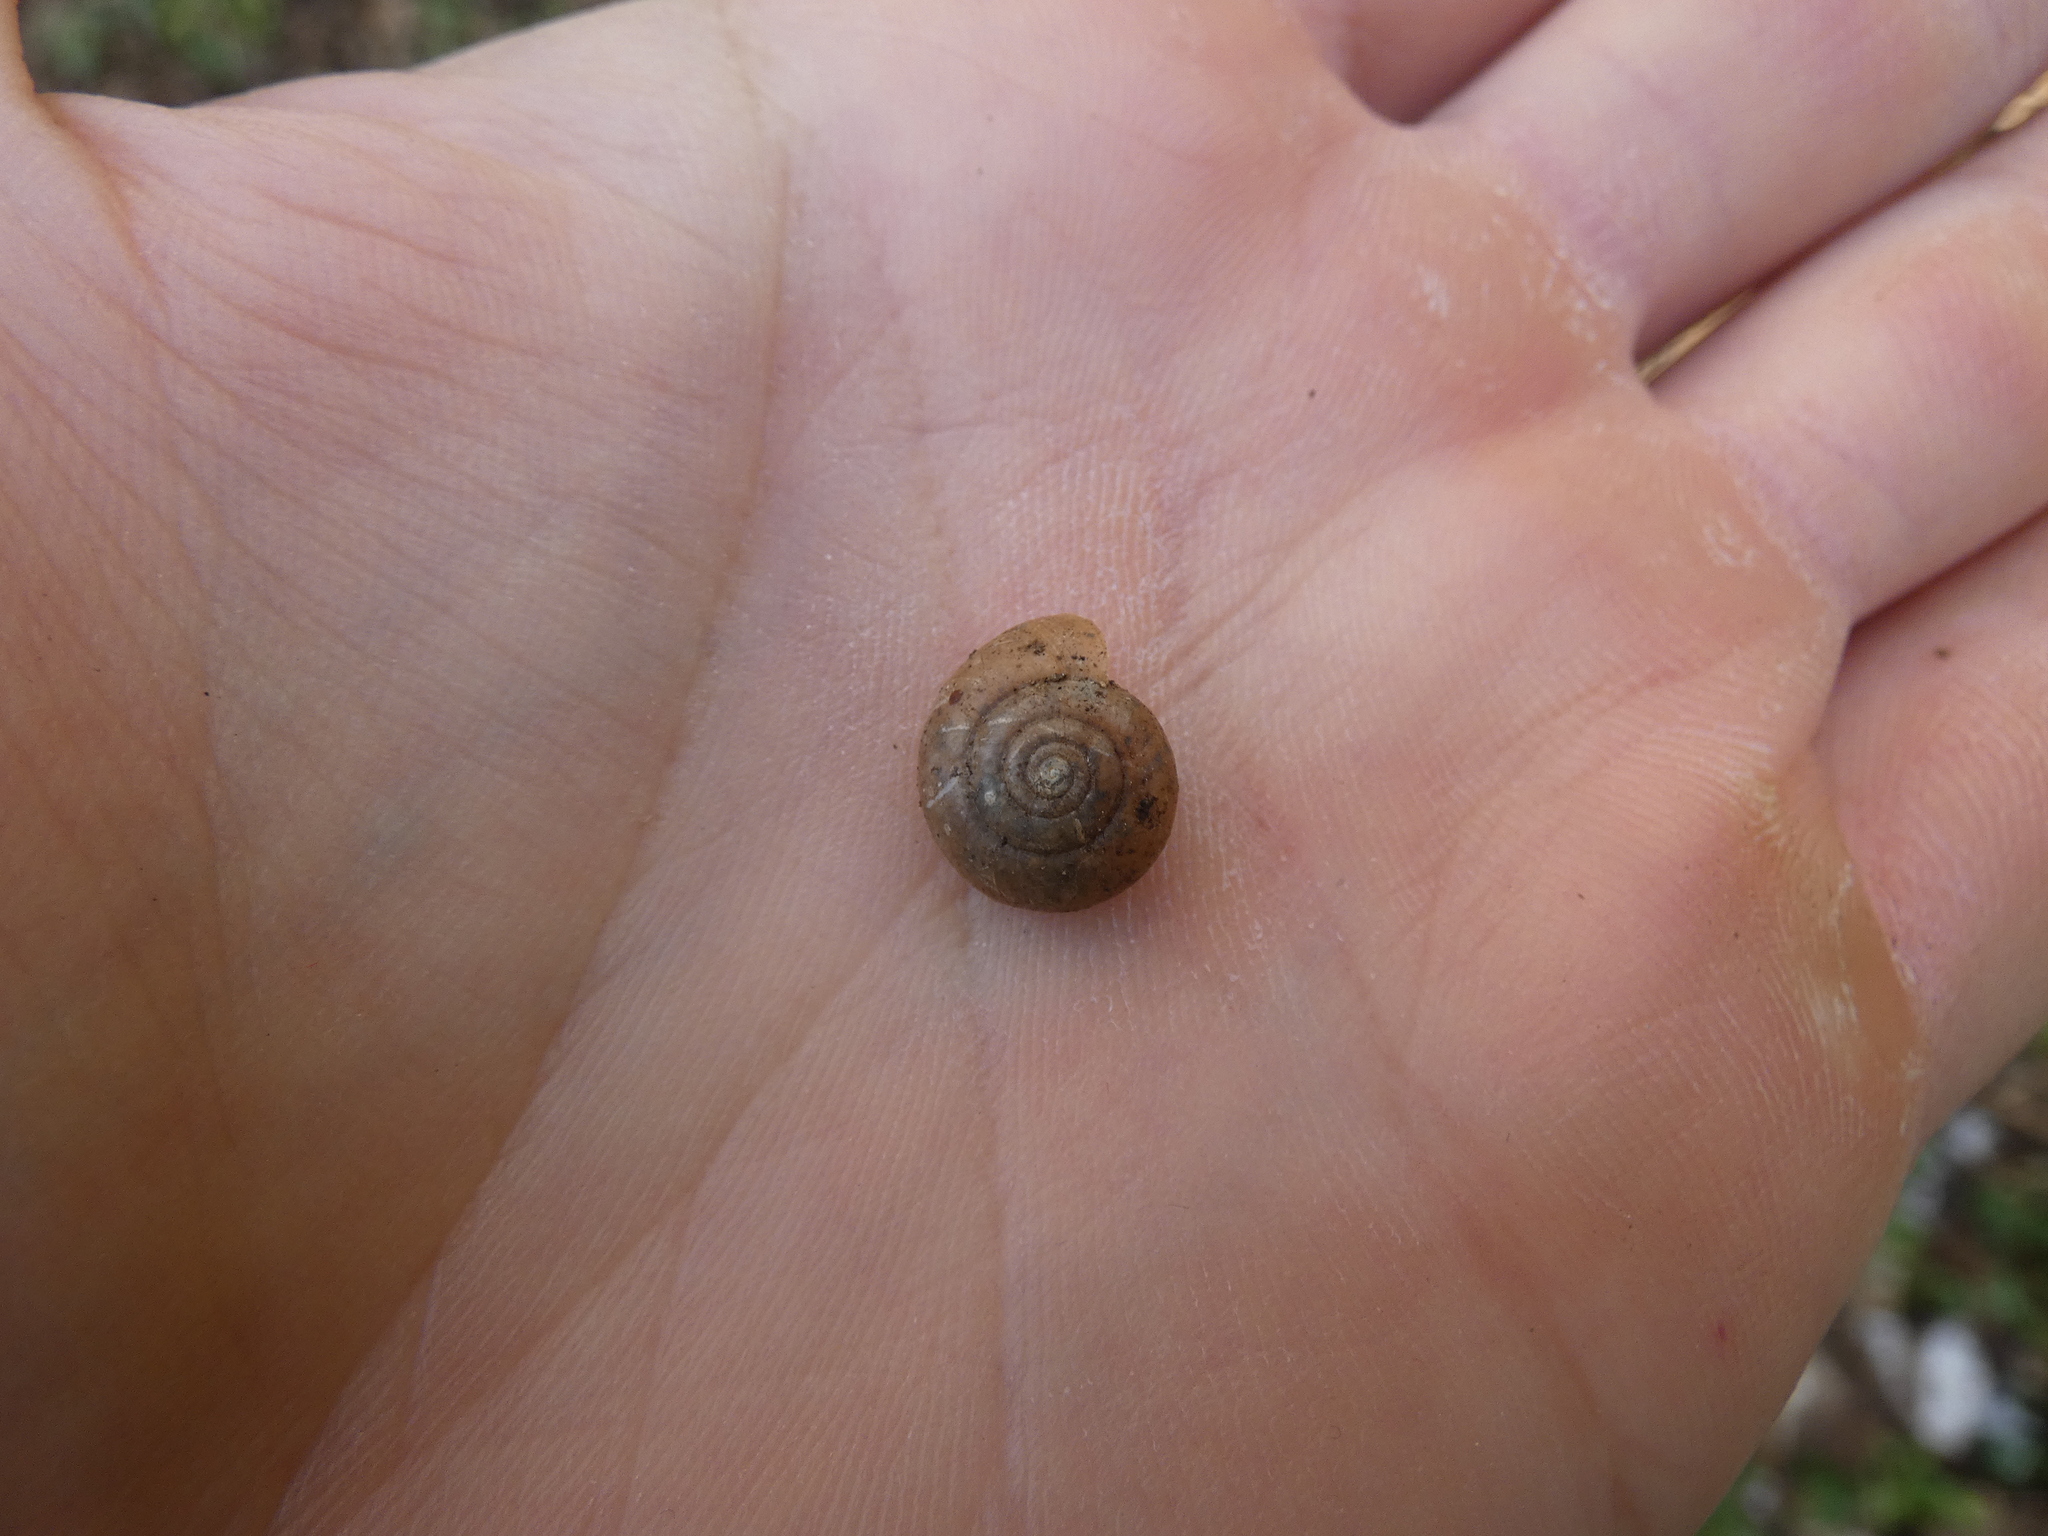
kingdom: Animalia
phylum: Mollusca
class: Gastropoda
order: Stylommatophora
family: Oxychilidae
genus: Oxychilus
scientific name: Oxychilus draparnaudi
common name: Draparnaud's glass snail
